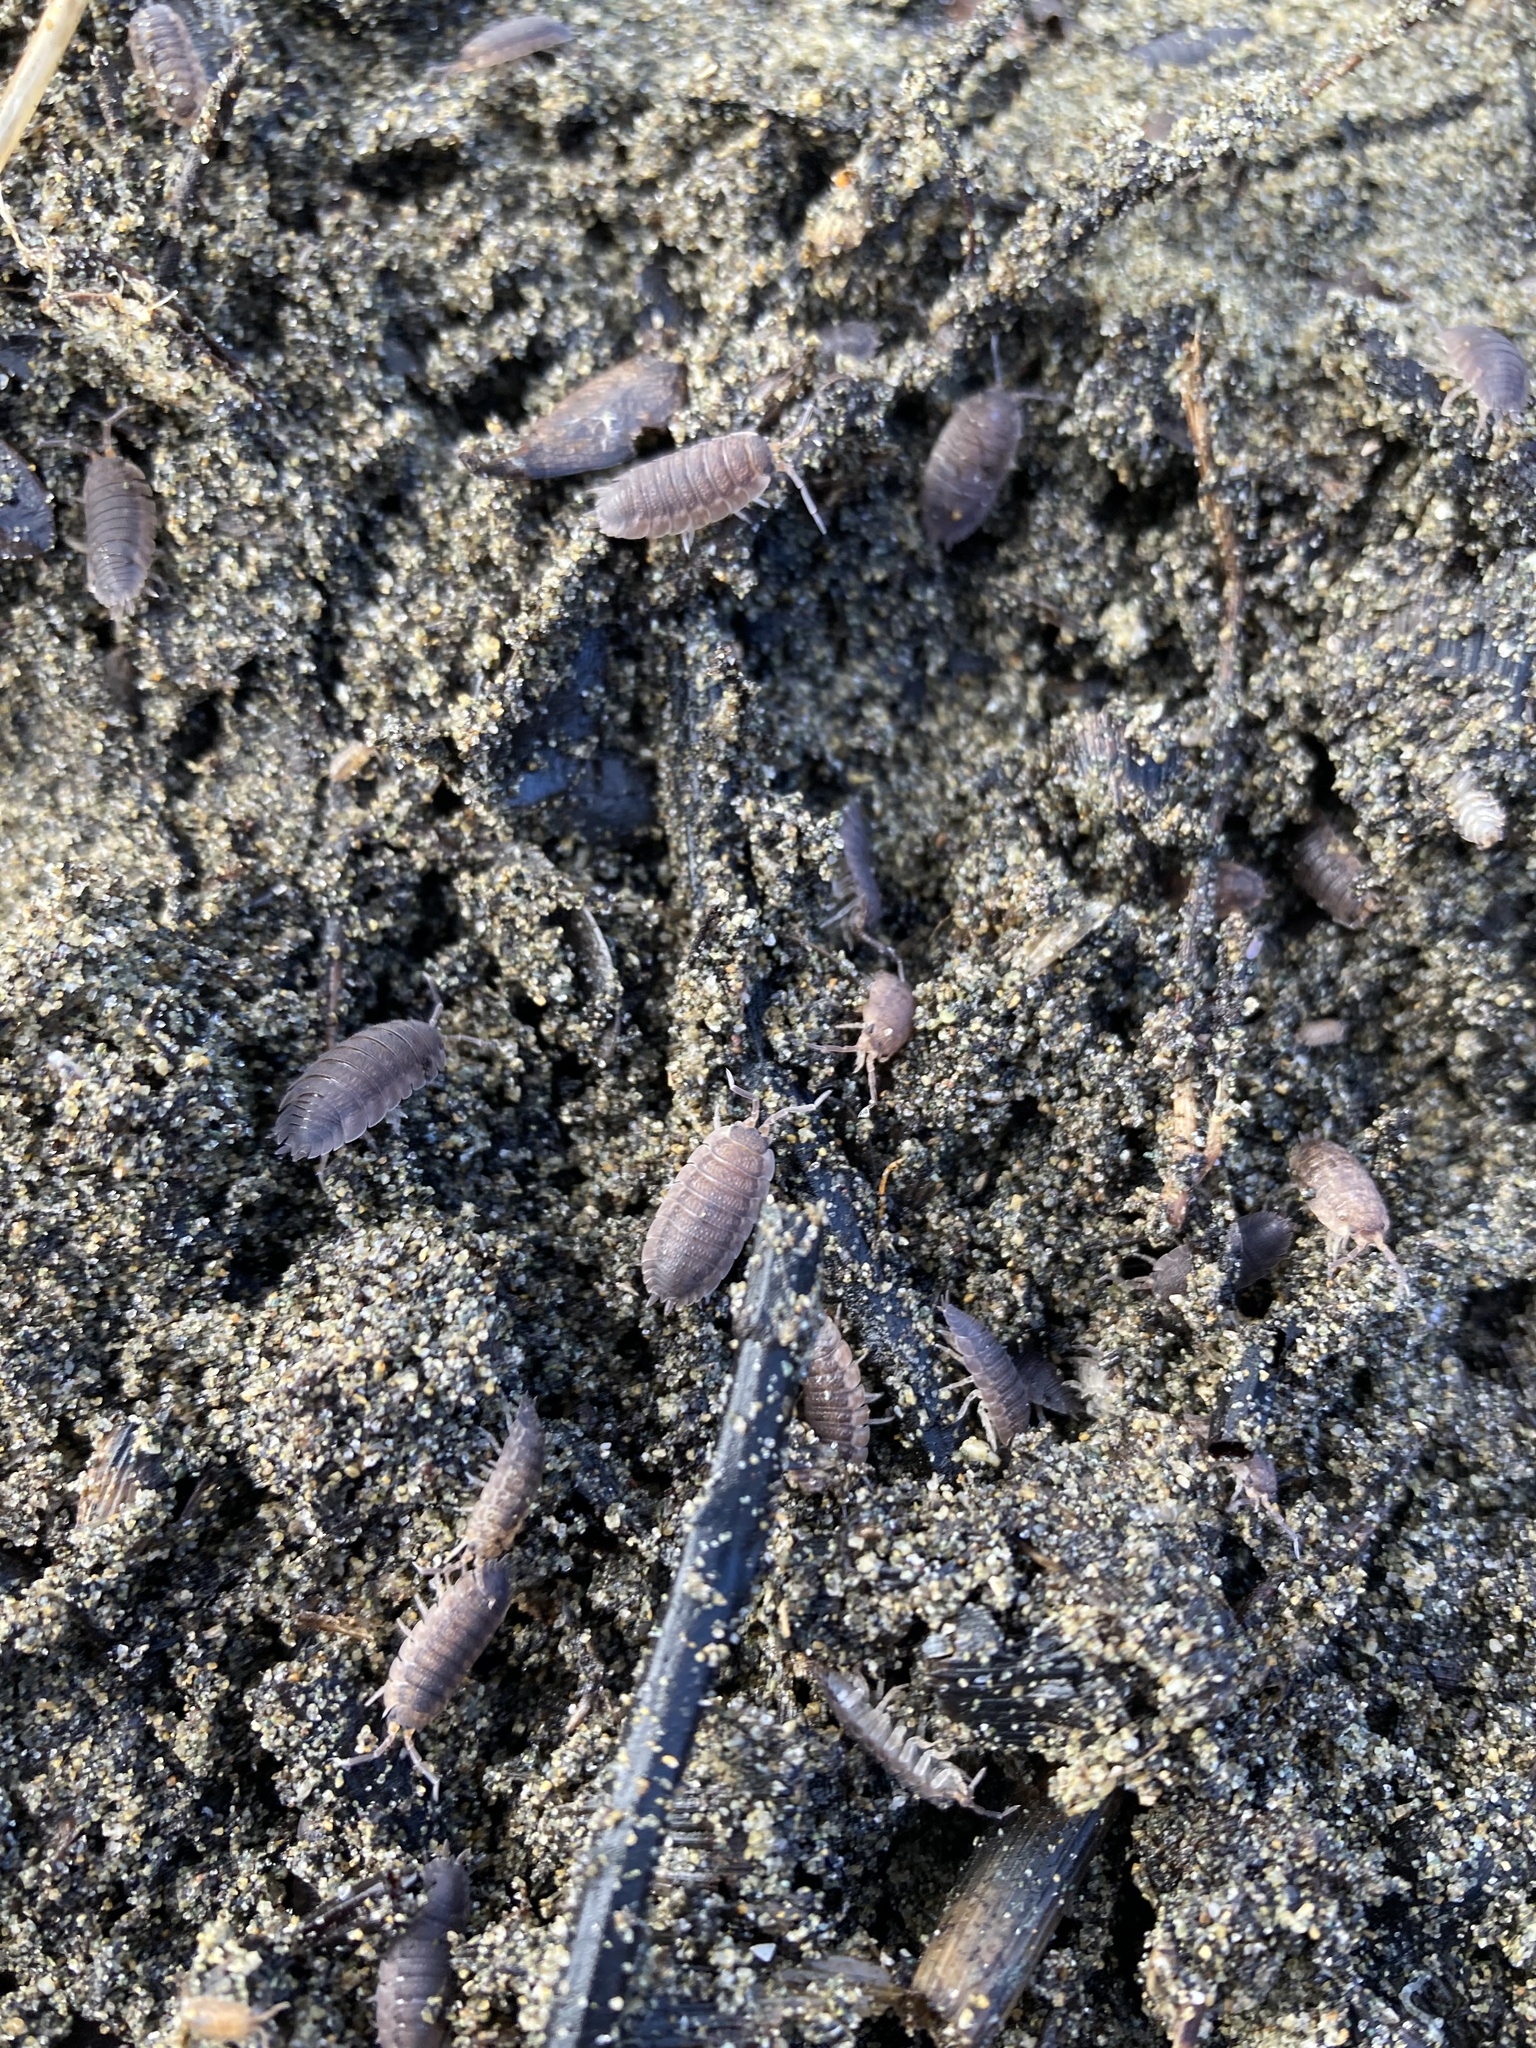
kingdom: Animalia
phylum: Arthropoda
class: Malacostraca
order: Isopoda
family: Porcellionidae
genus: Porcellio
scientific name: Porcellio scaber
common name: Common rough woodlouse
